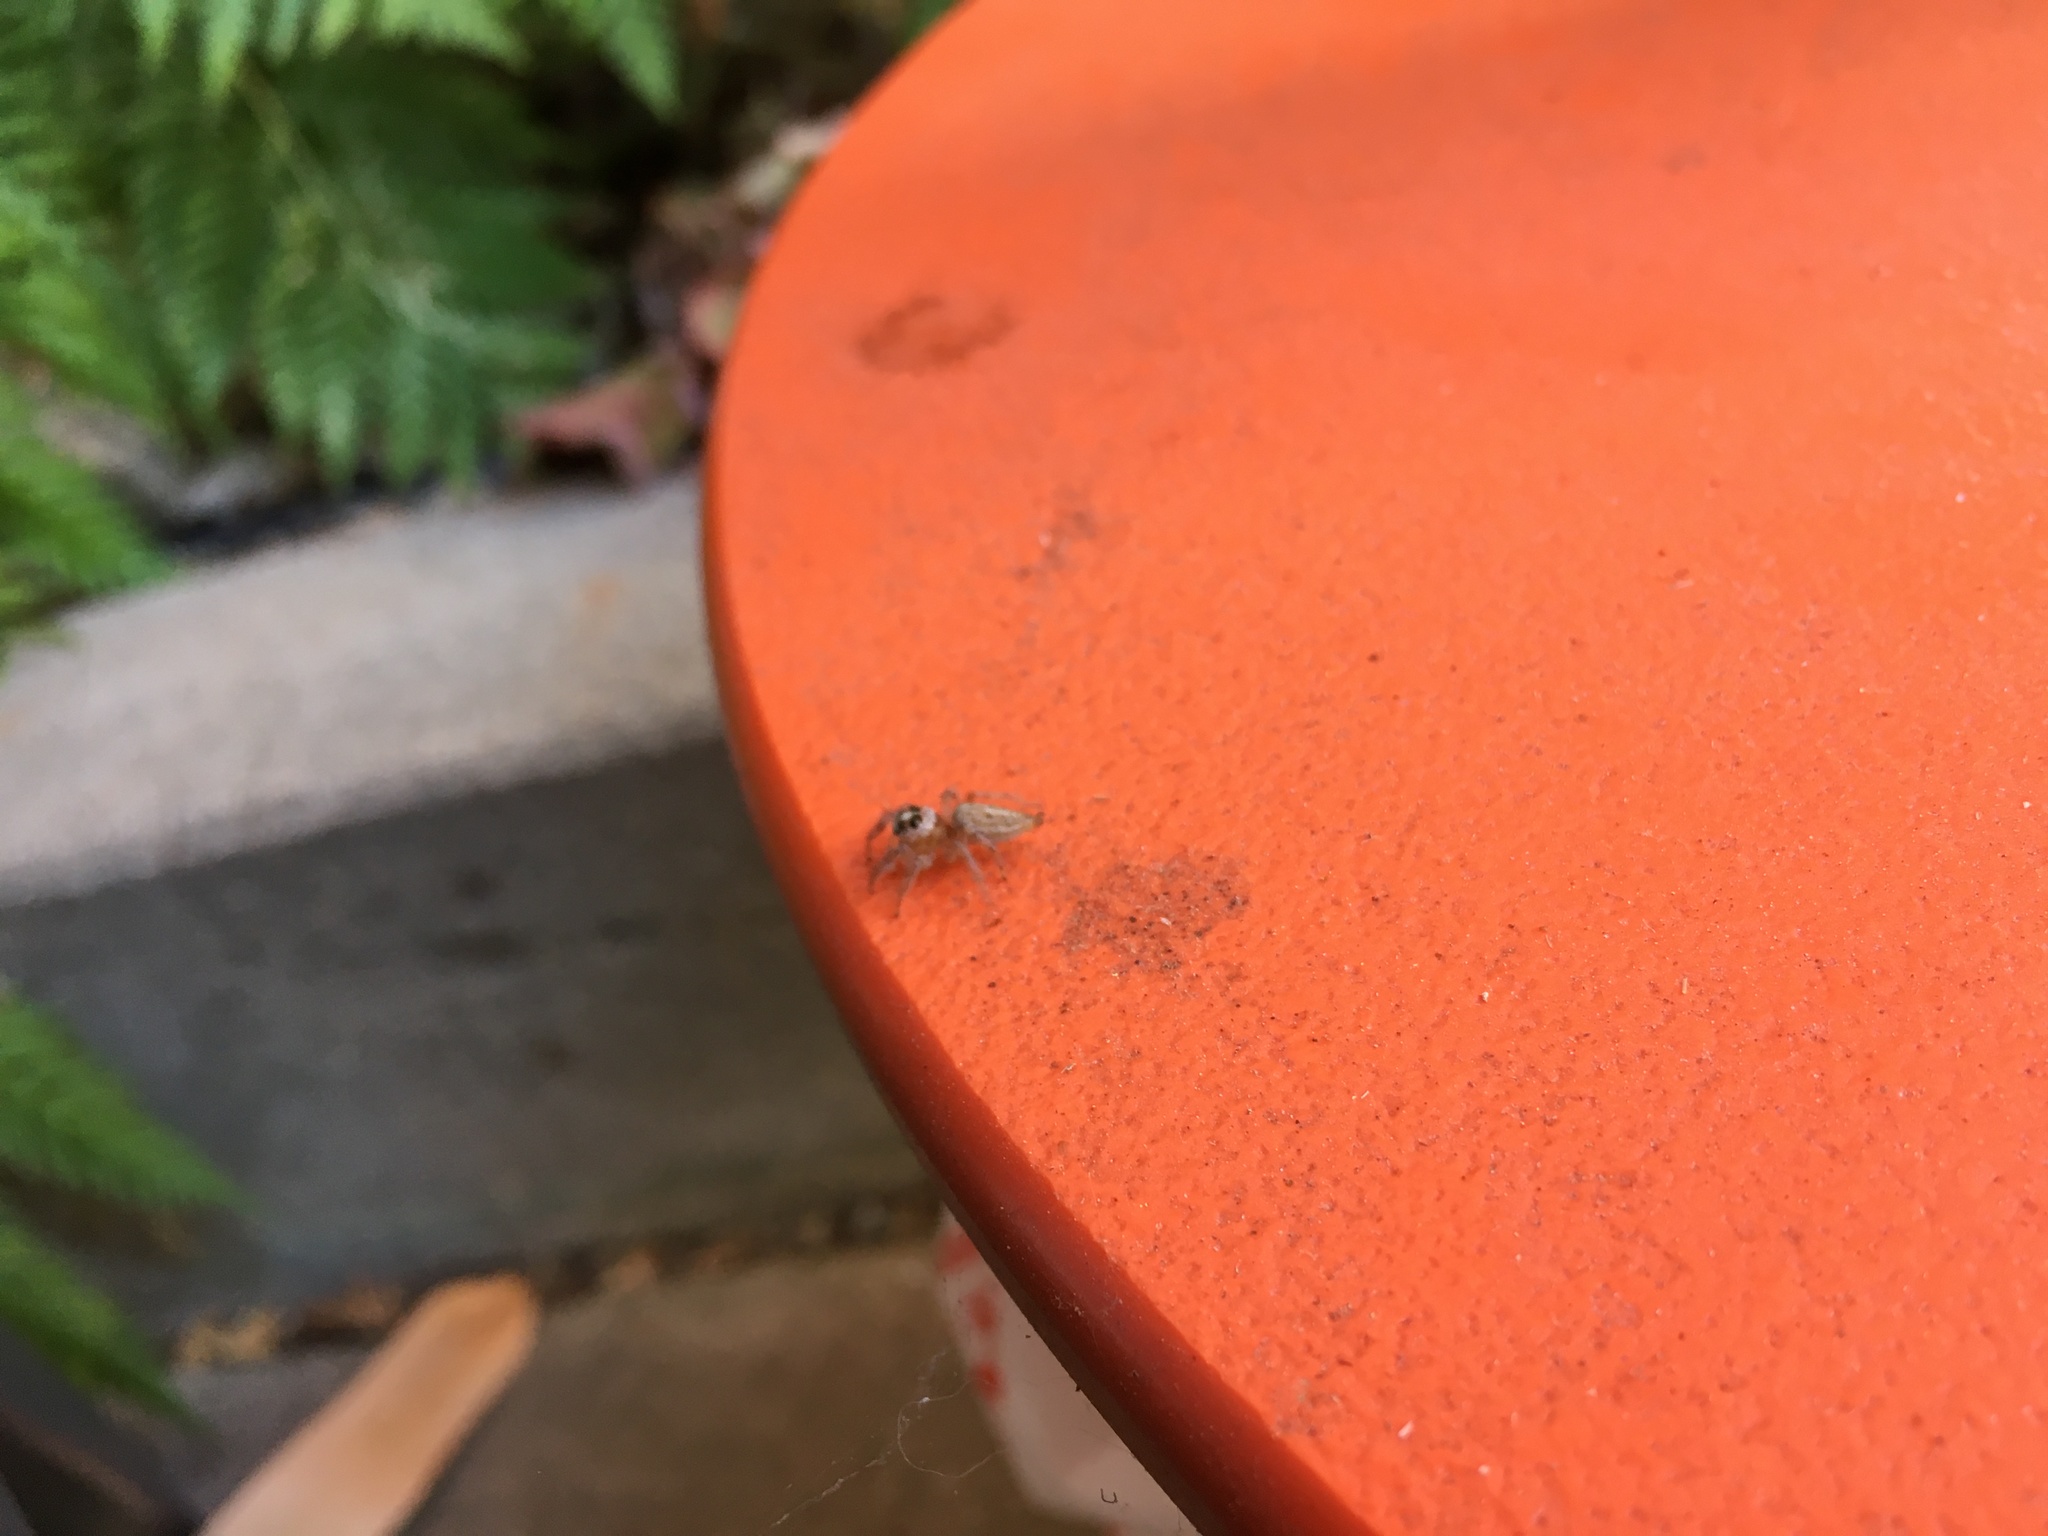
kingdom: Animalia
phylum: Arthropoda
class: Arachnida
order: Araneae
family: Salticidae
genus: Colonus
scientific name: Colonus hesperus
